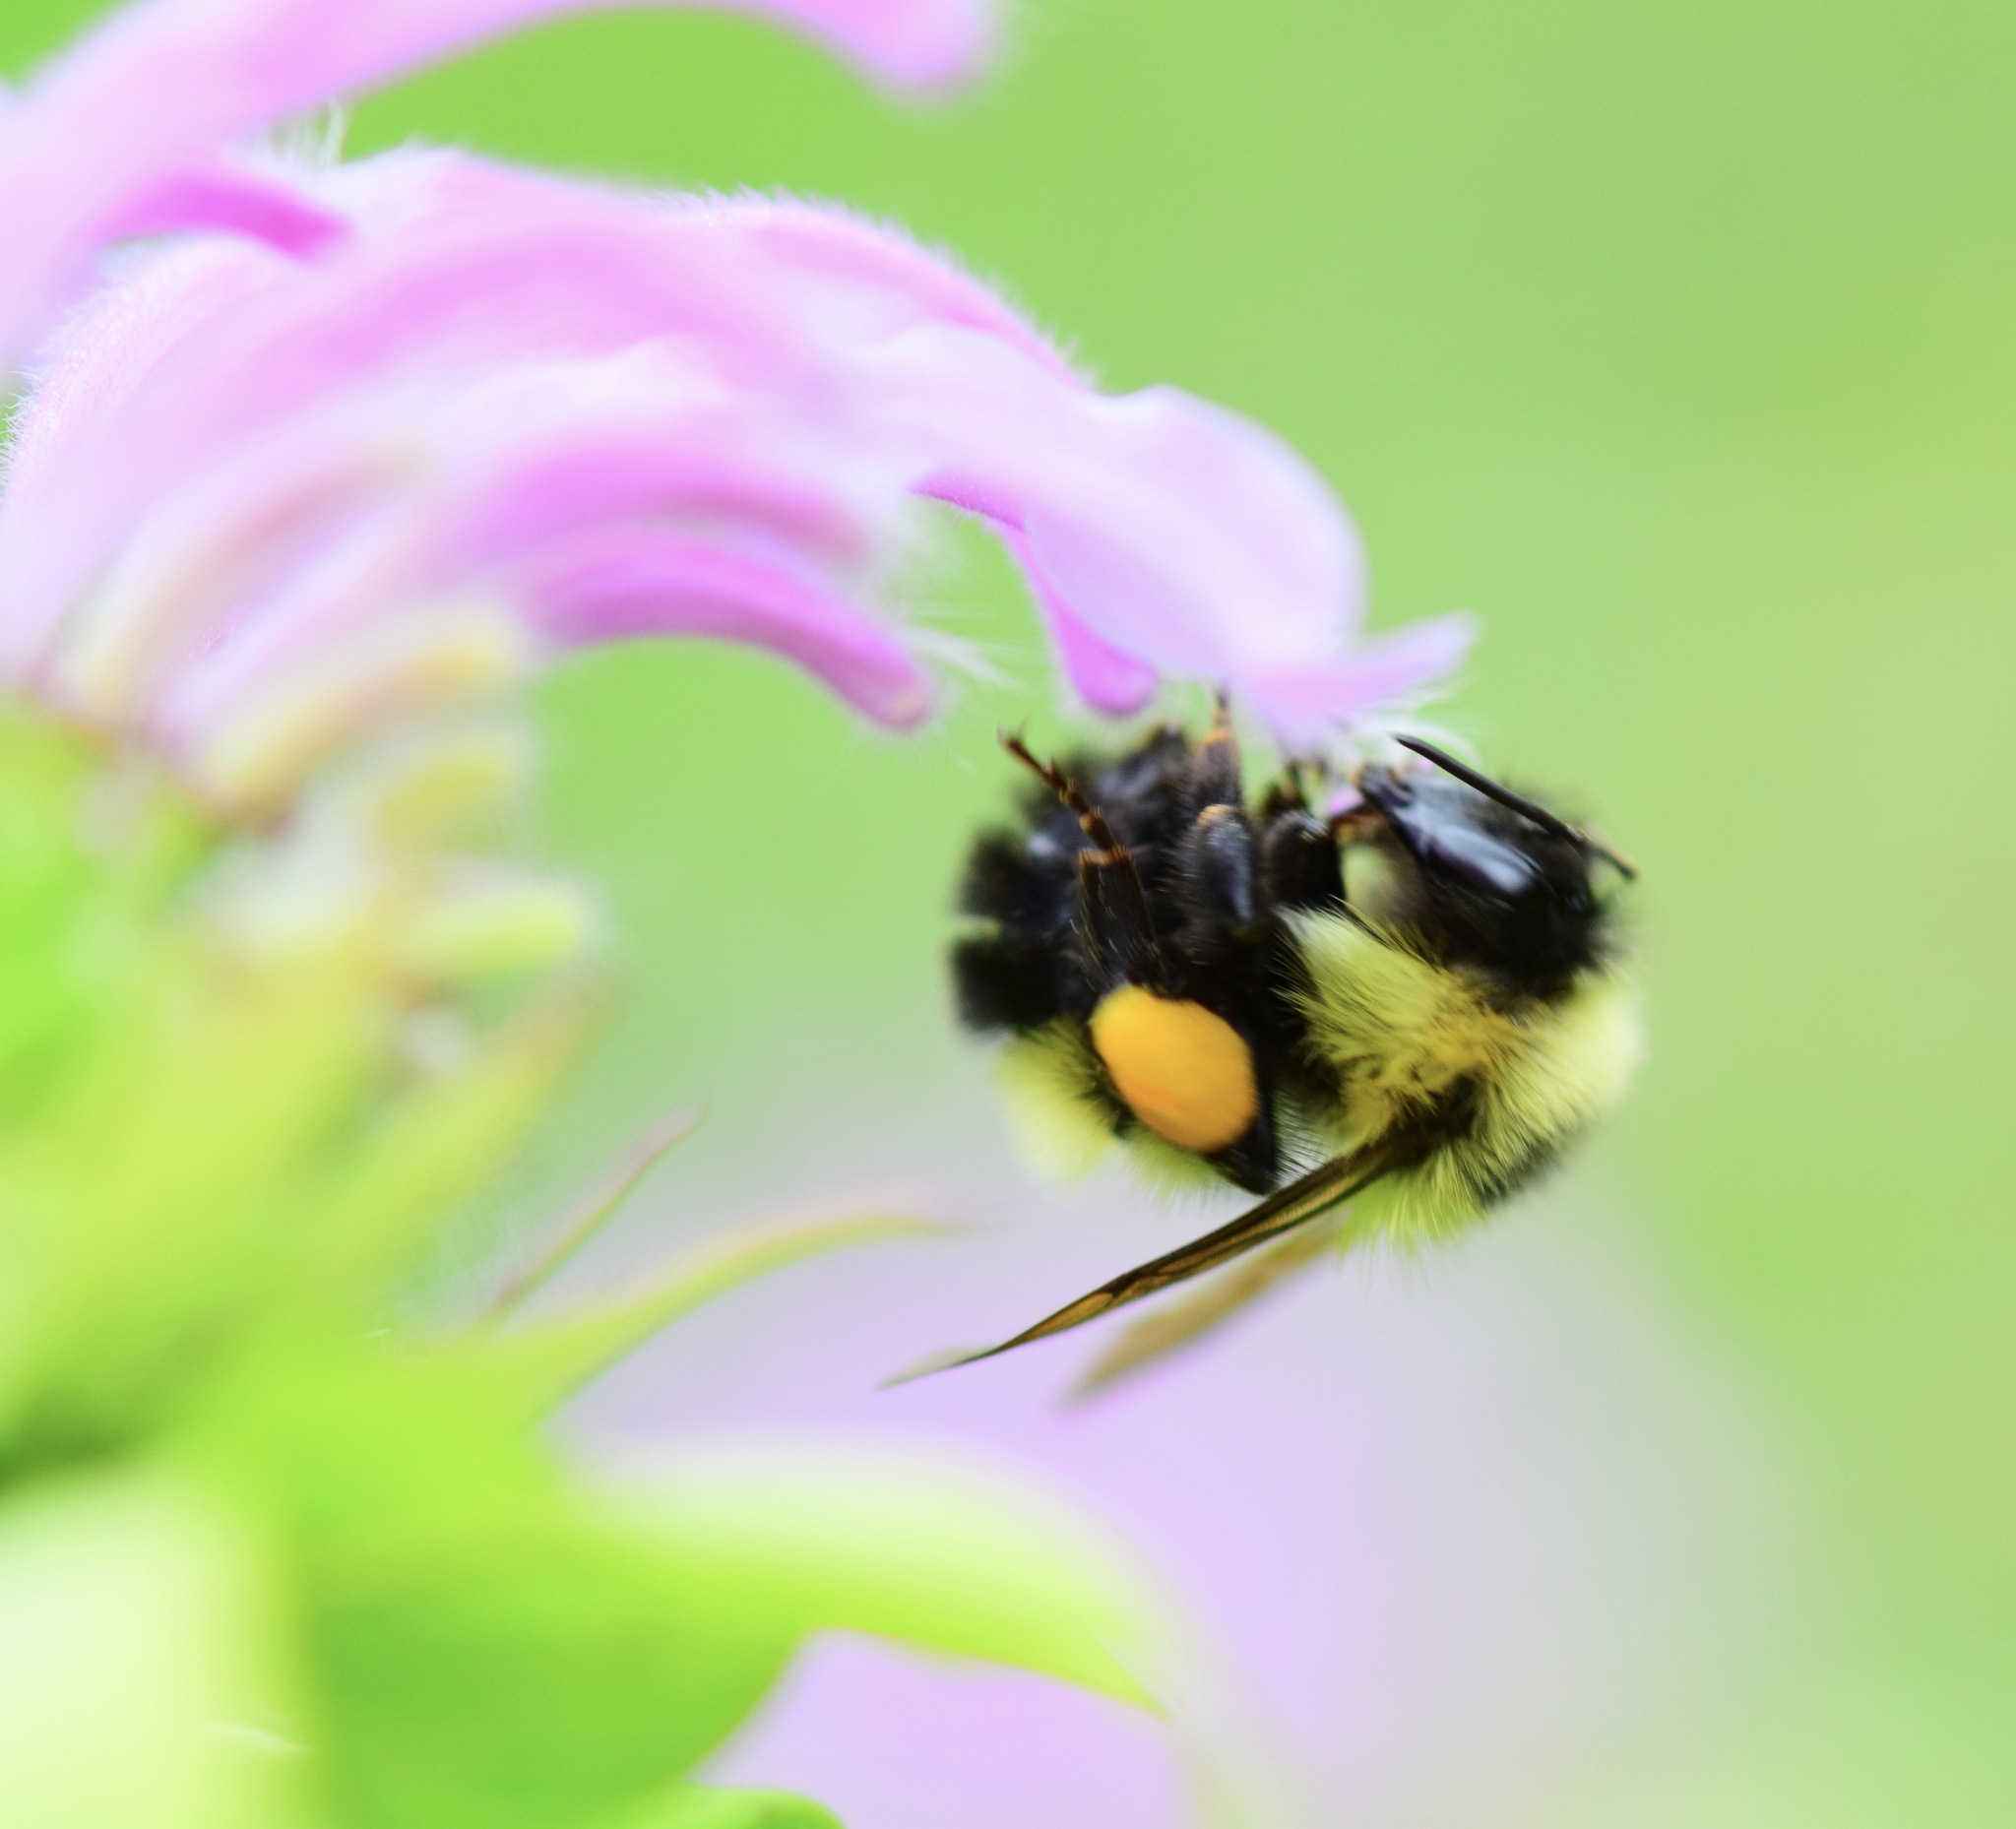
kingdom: Animalia
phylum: Arthropoda
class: Insecta
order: Hymenoptera
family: Apidae
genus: Bombus
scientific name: Bombus vagans
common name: Half-black bumble bee
